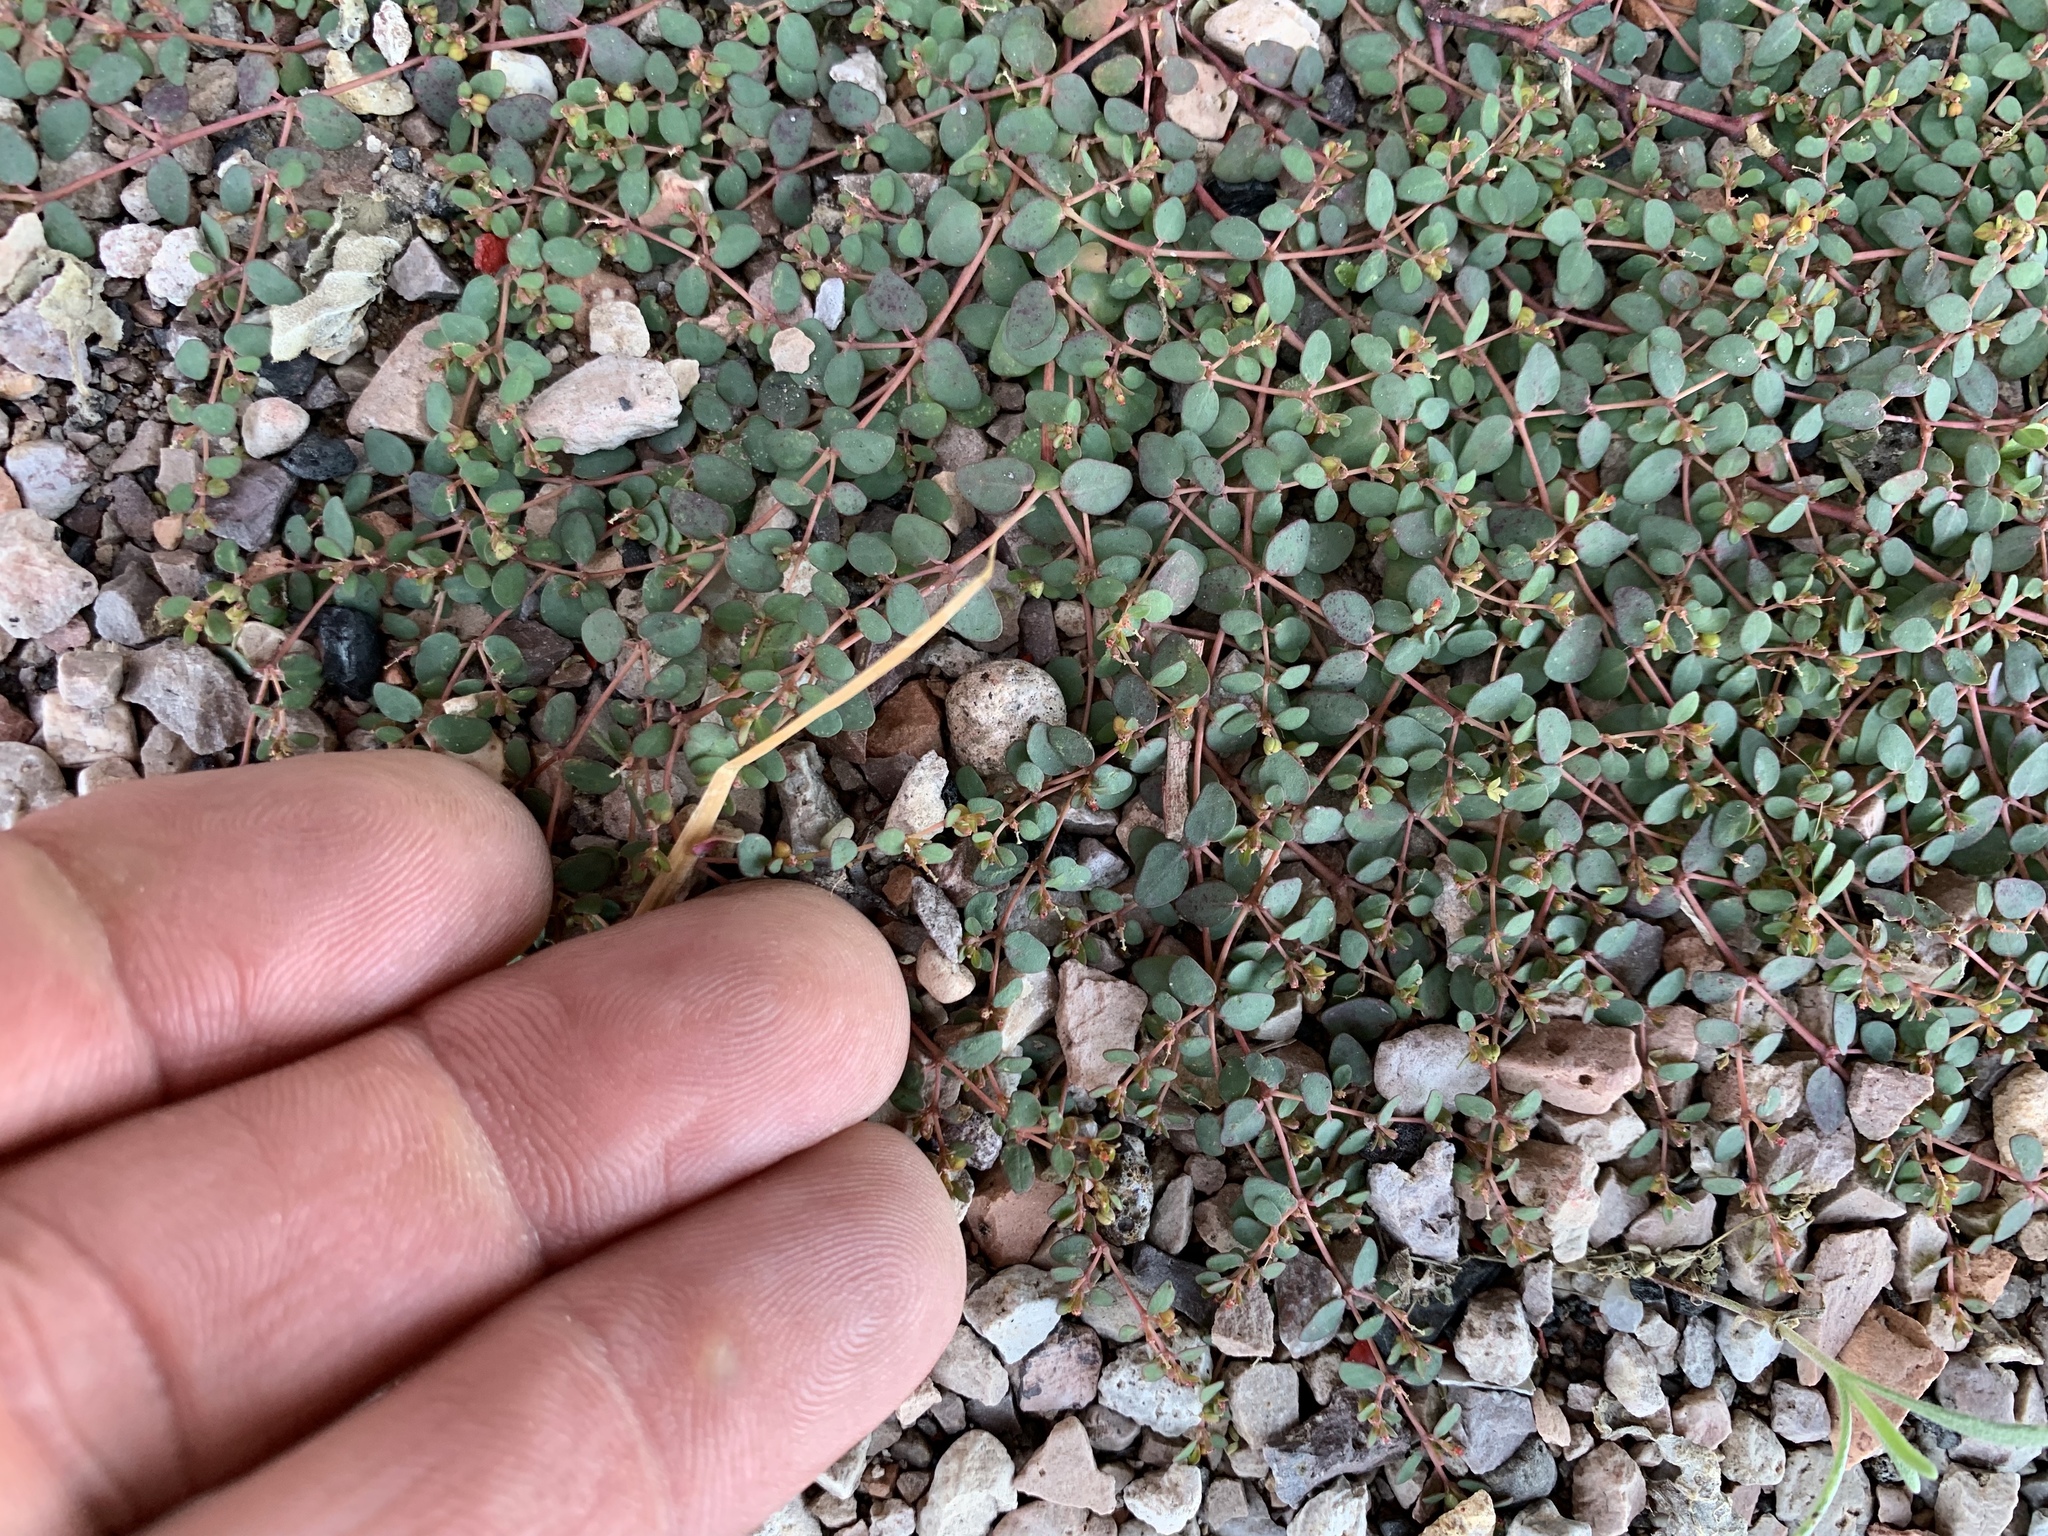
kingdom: Plantae
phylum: Tracheophyta
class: Magnoliopsida
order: Malpighiales
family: Euphorbiaceae
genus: Euphorbia
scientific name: Euphorbia micromera
